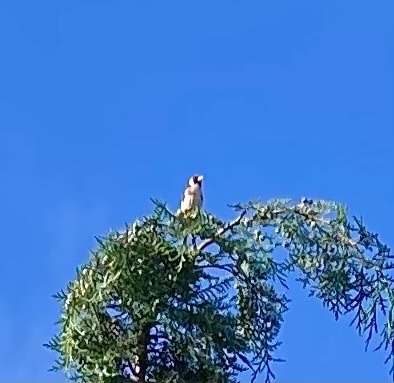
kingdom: Animalia
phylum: Chordata
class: Aves
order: Passeriformes
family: Fringillidae
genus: Carduelis
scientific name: Carduelis carduelis
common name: European goldfinch
